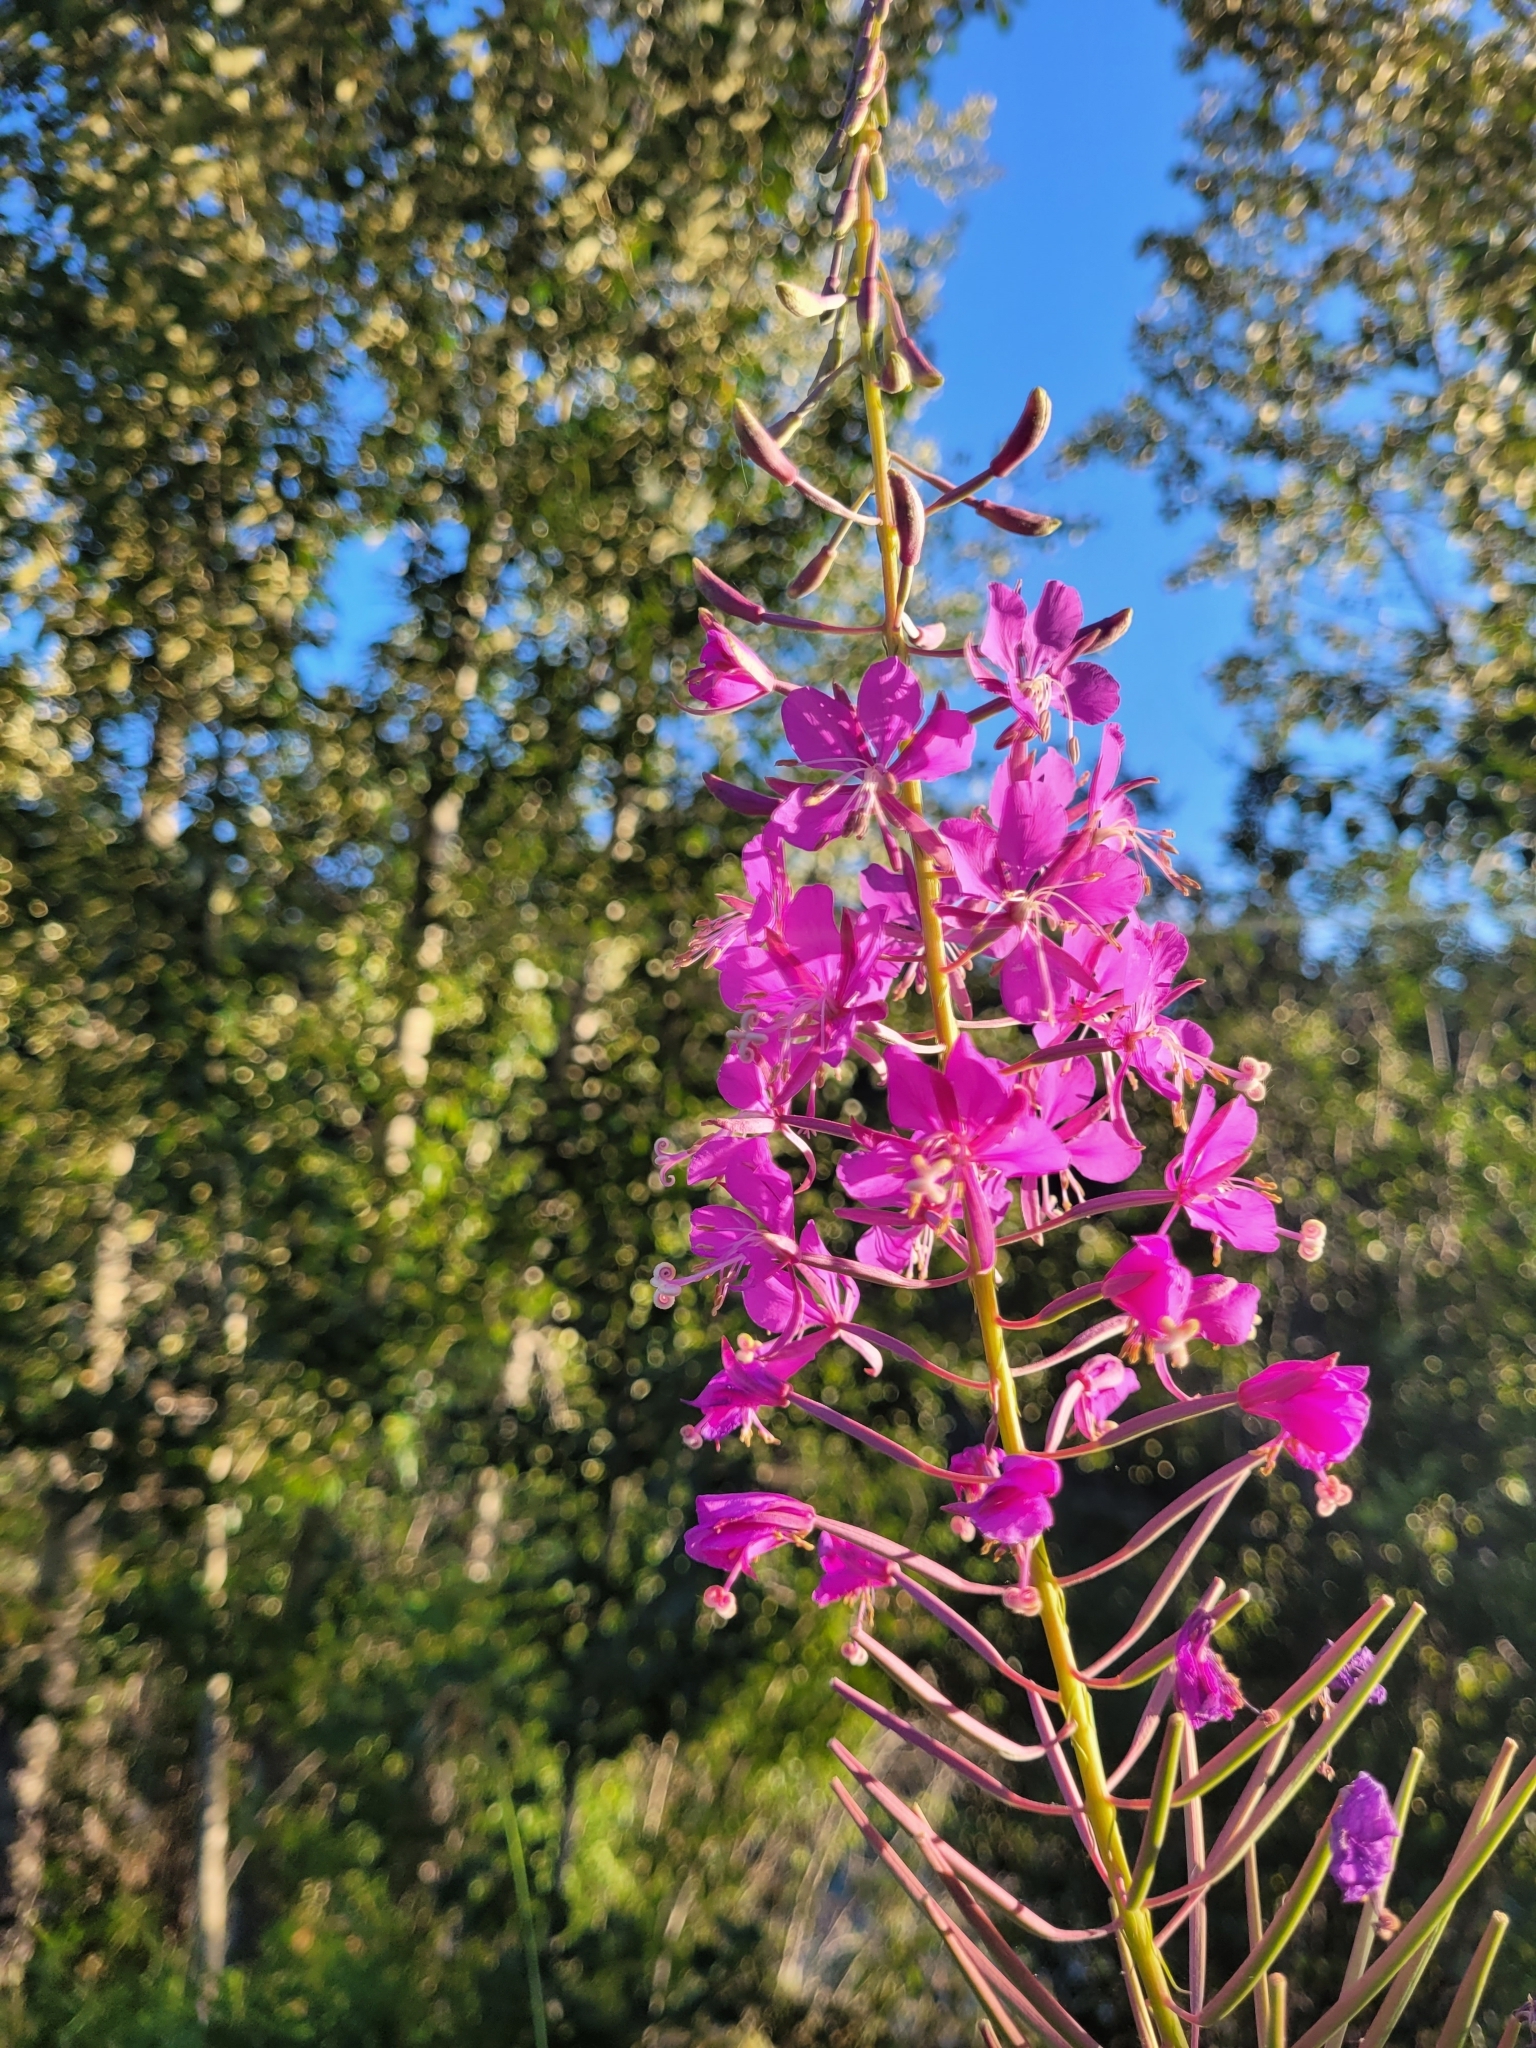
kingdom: Plantae
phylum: Tracheophyta
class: Magnoliopsida
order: Myrtales
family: Onagraceae
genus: Chamaenerion
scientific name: Chamaenerion angustifolium
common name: Fireweed
